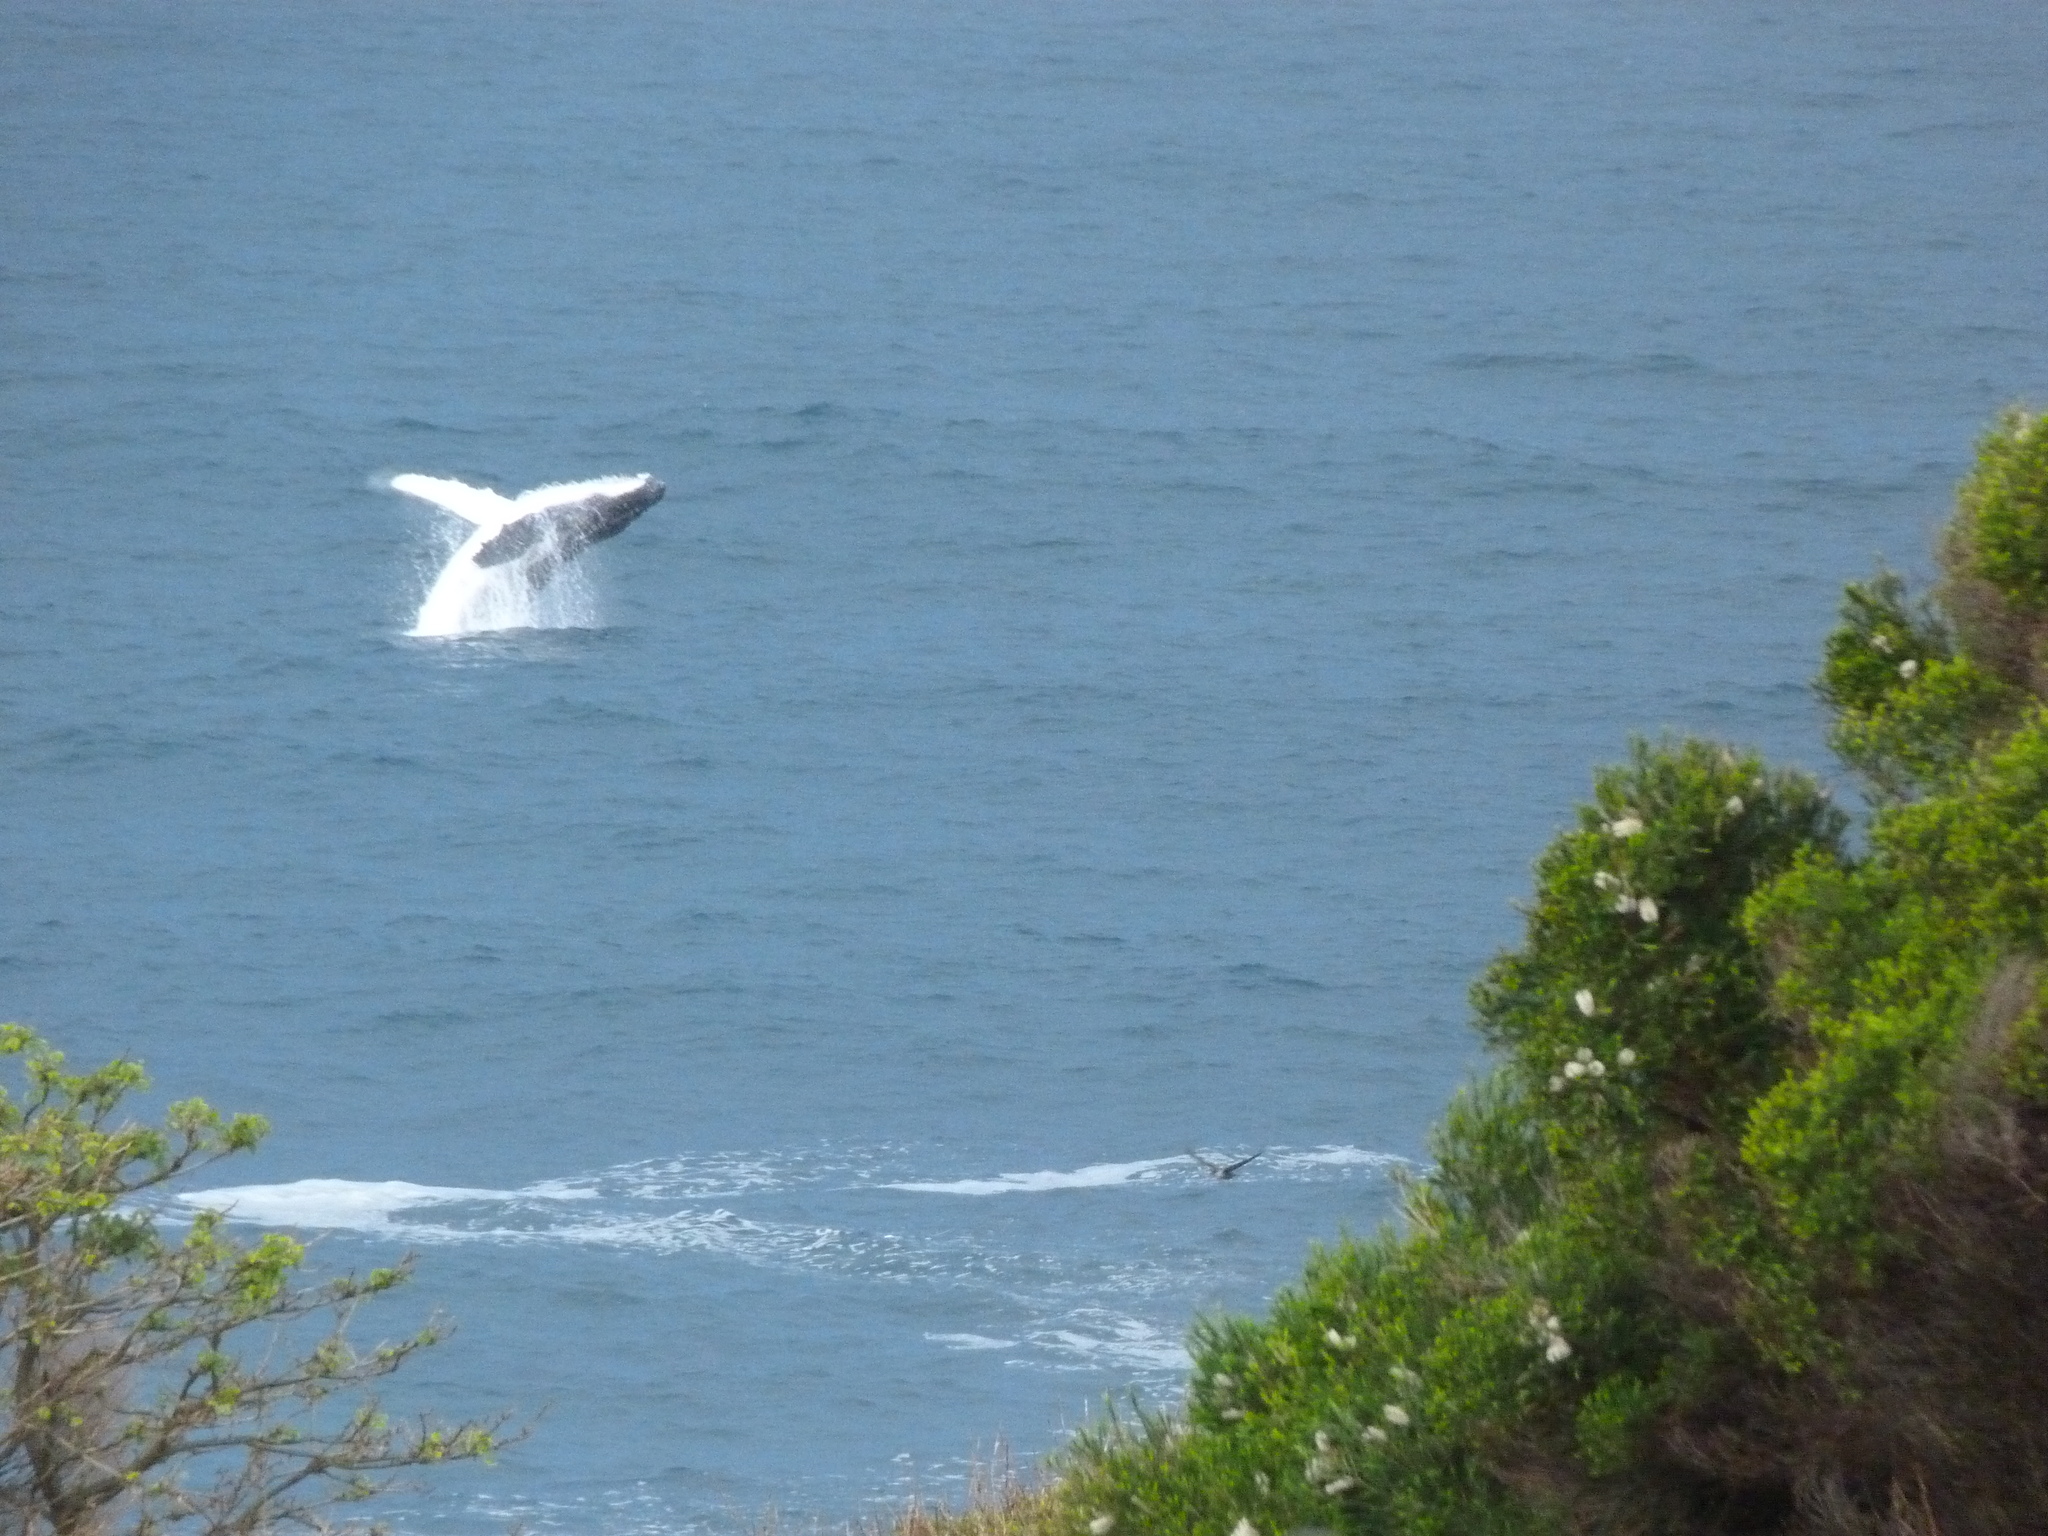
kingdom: Animalia
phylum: Chordata
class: Mammalia
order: Cetacea
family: Balaenopteridae
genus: Megaptera
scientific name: Megaptera novaeangliae
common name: Humpback whale
